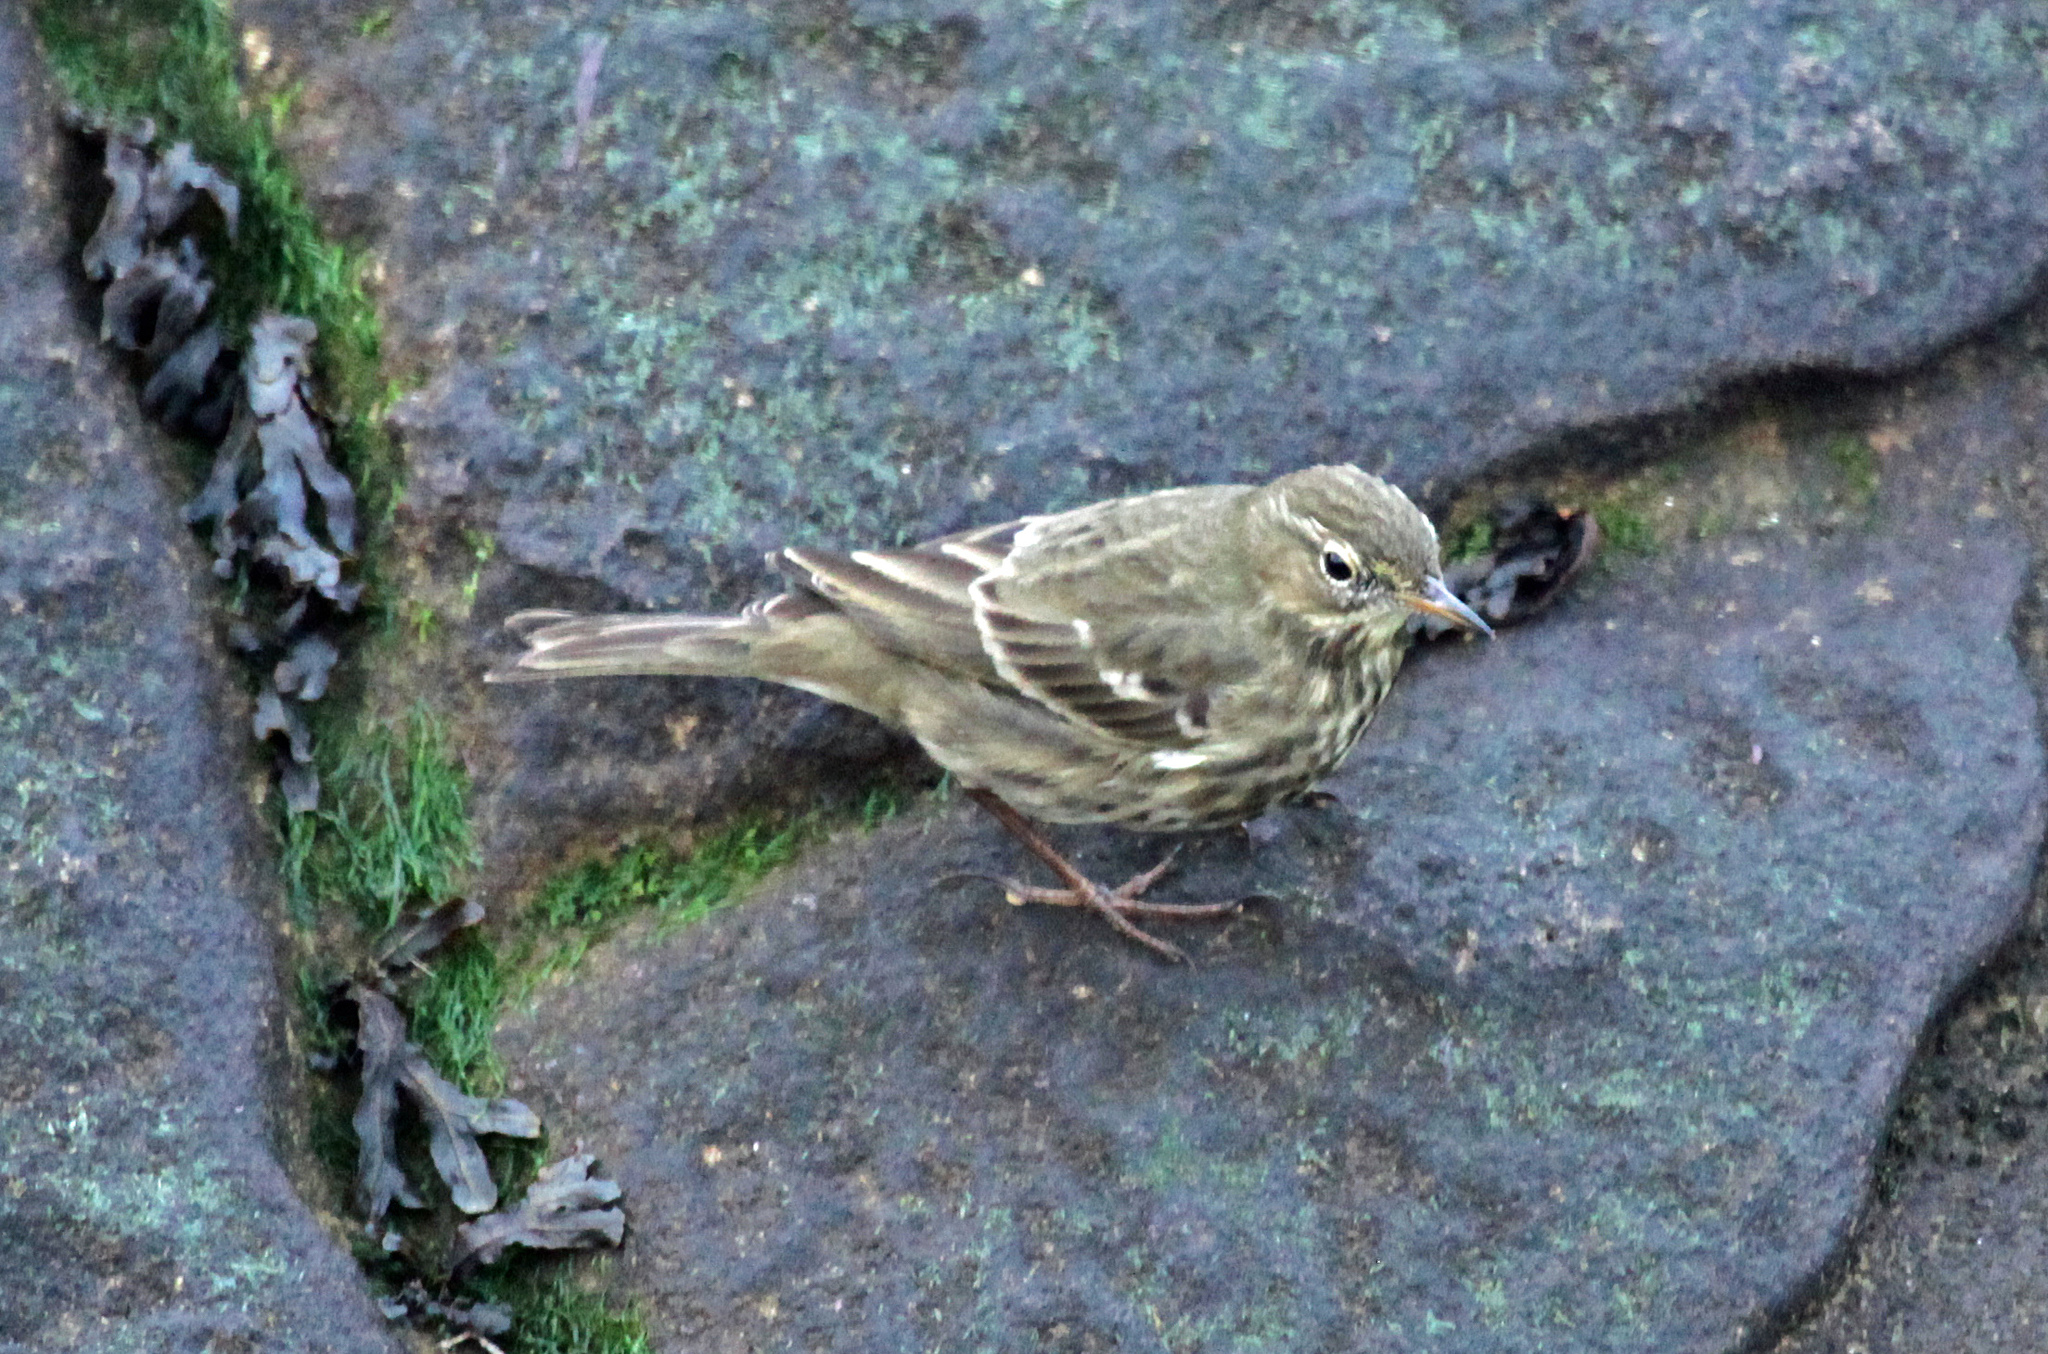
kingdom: Animalia
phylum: Chordata
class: Aves
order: Passeriformes
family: Motacillidae
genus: Anthus
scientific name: Anthus petrosus
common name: Eurasian rock pipit
